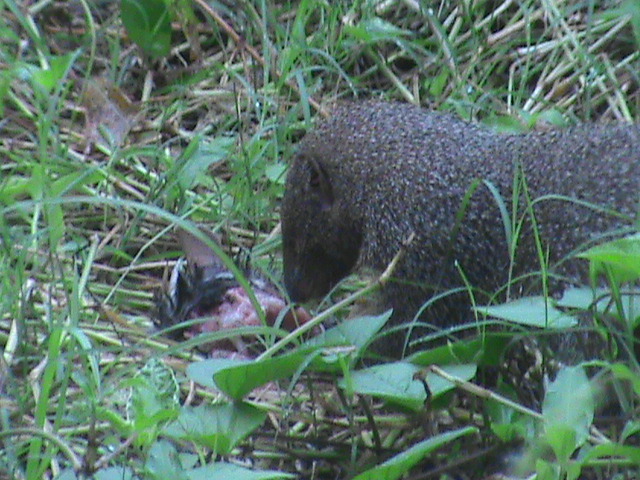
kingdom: Animalia
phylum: Chordata
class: Mammalia
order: Carnivora
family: Herpestidae
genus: Herpestes
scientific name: Herpestes edwardsi
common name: Indian gray mongoose
